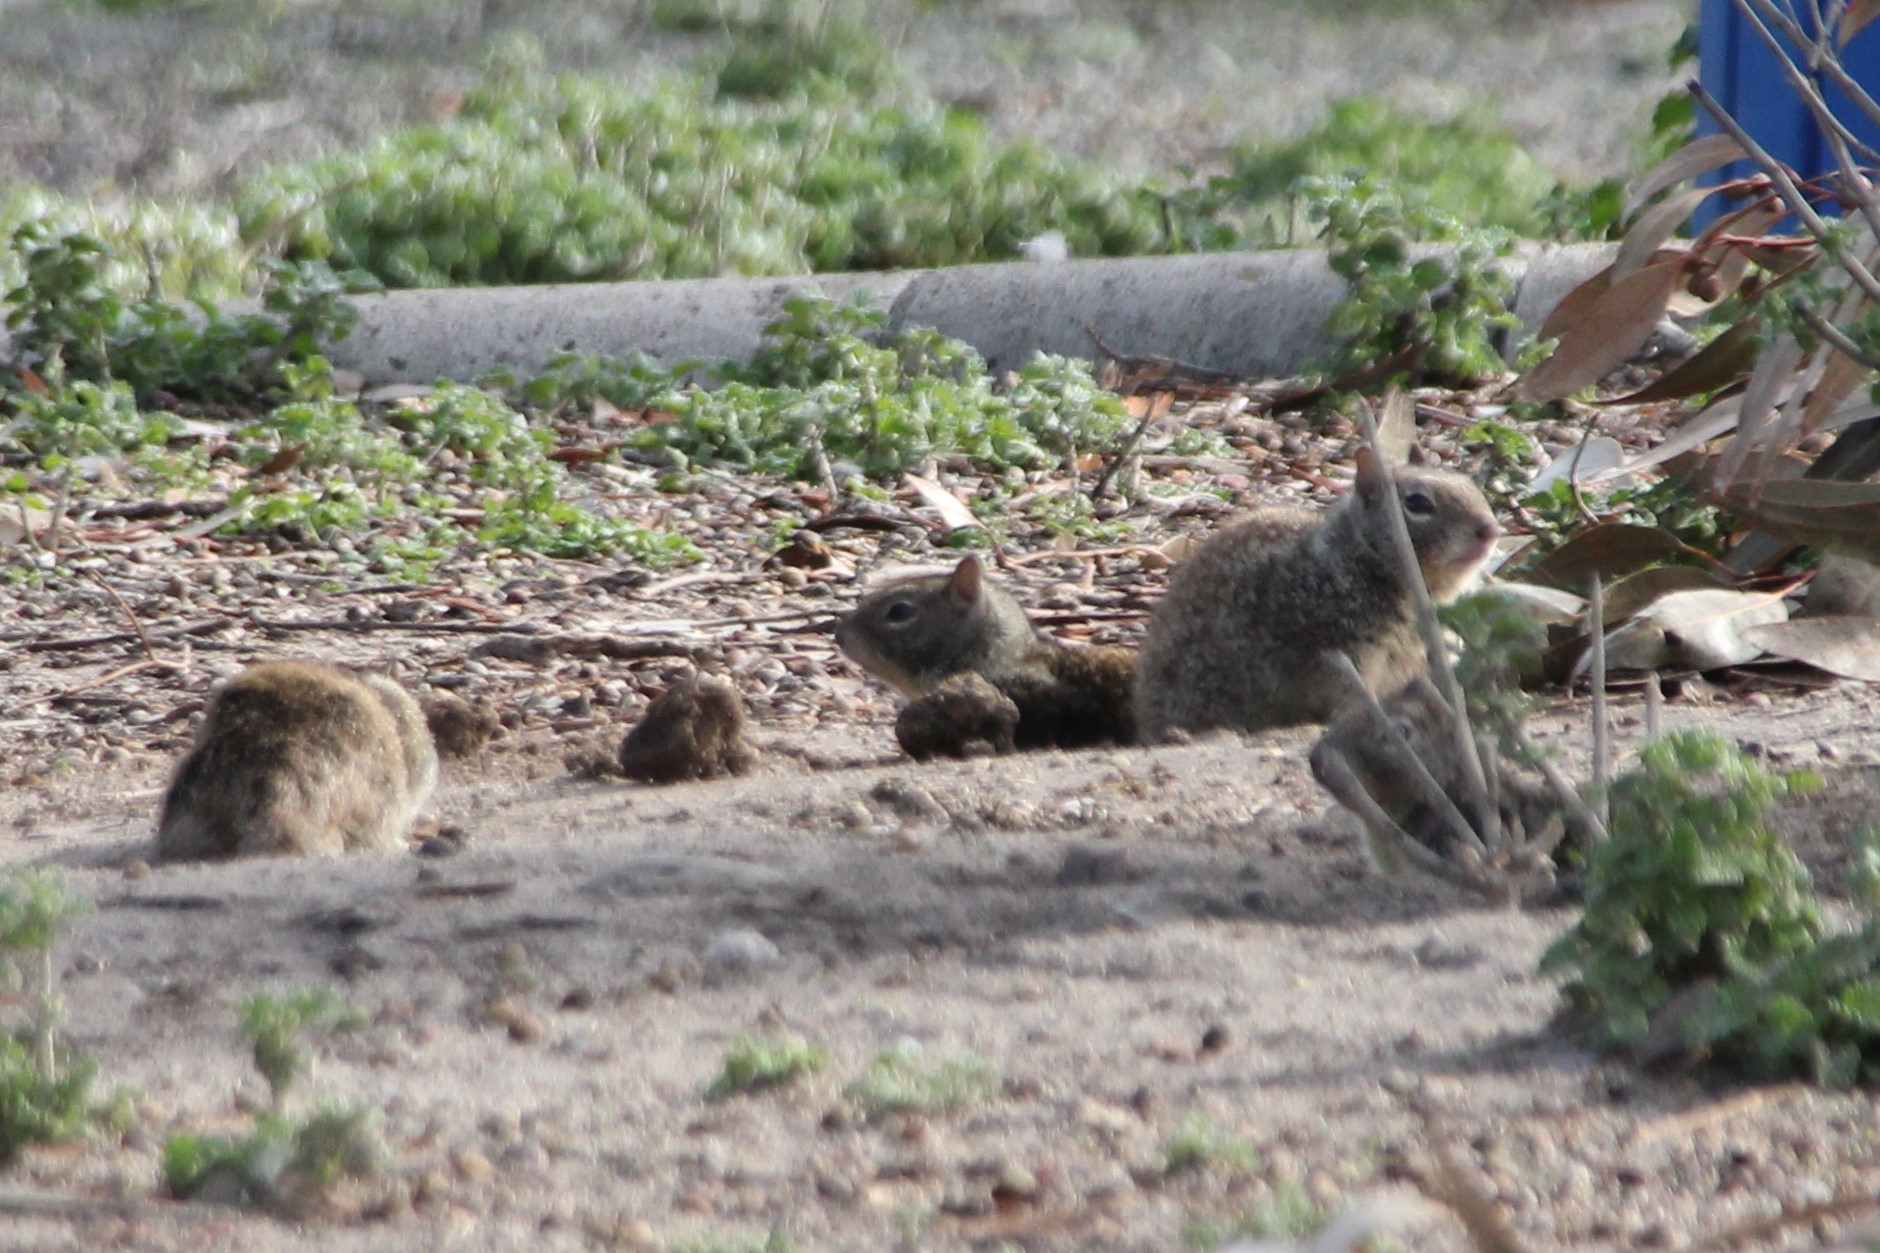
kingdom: Animalia
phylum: Chordata
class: Mammalia
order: Rodentia
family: Sciuridae
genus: Otospermophilus
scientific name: Otospermophilus beecheyi
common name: California ground squirrel
